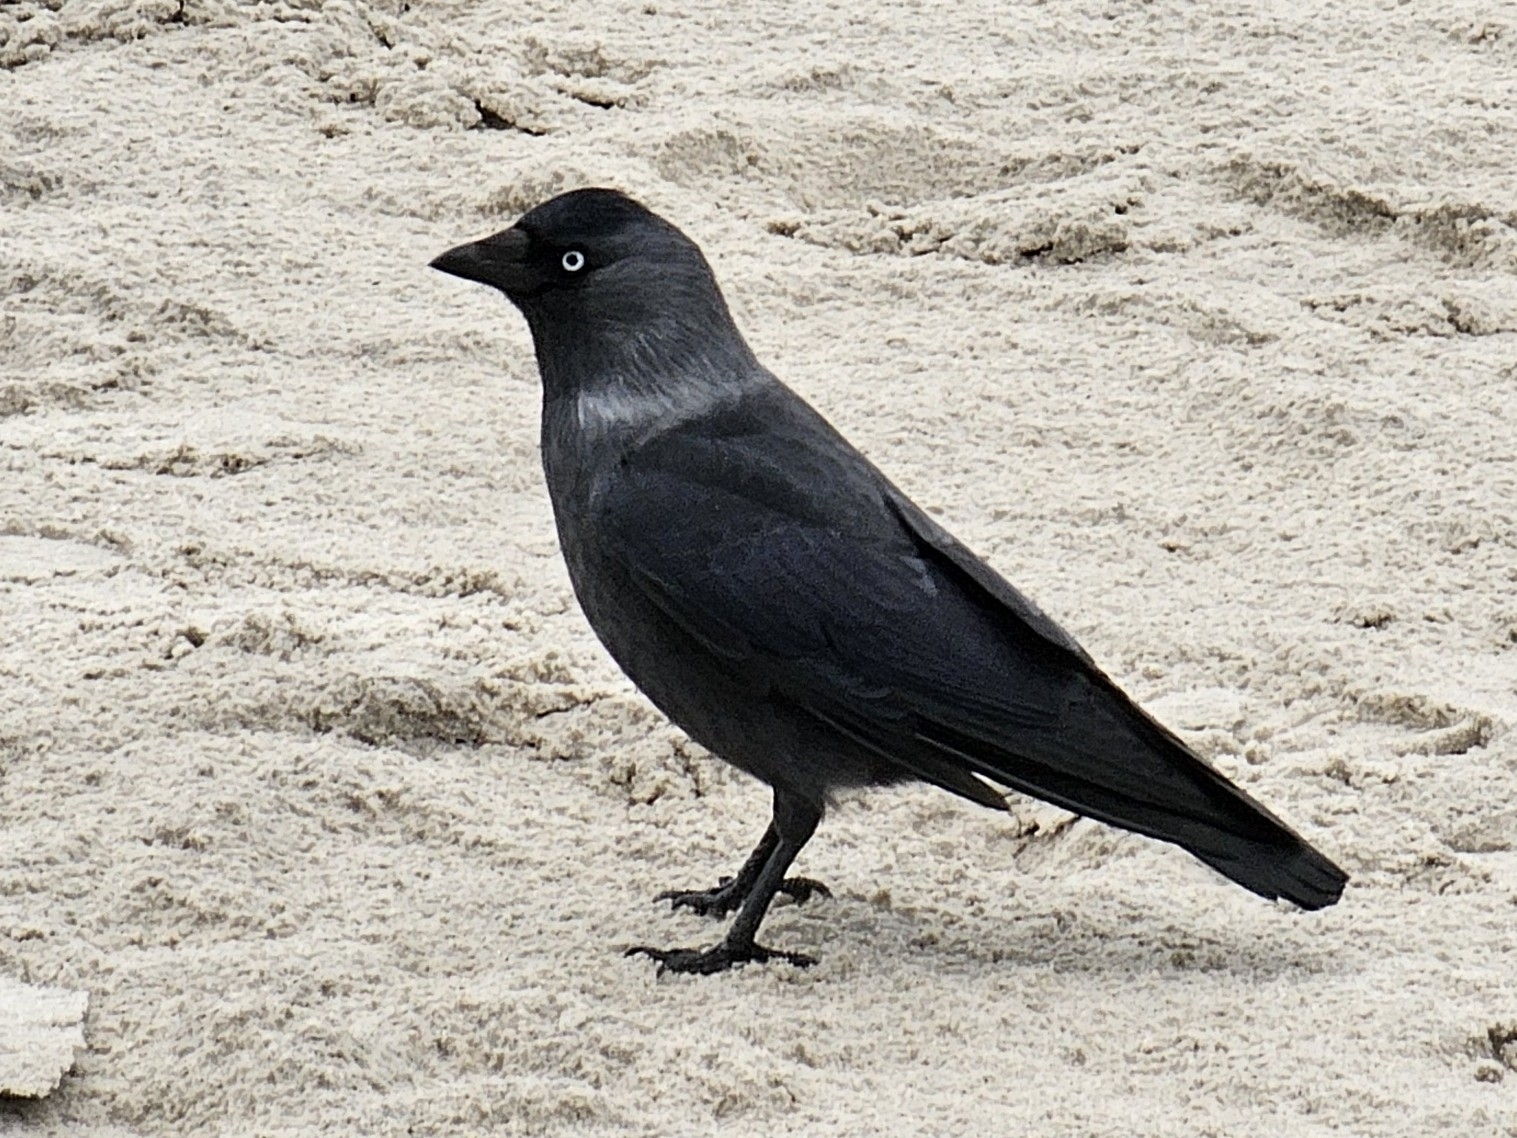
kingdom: Animalia
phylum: Chordata
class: Aves
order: Passeriformes
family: Corvidae
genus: Coloeus
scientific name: Coloeus monedula
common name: Western jackdaw
